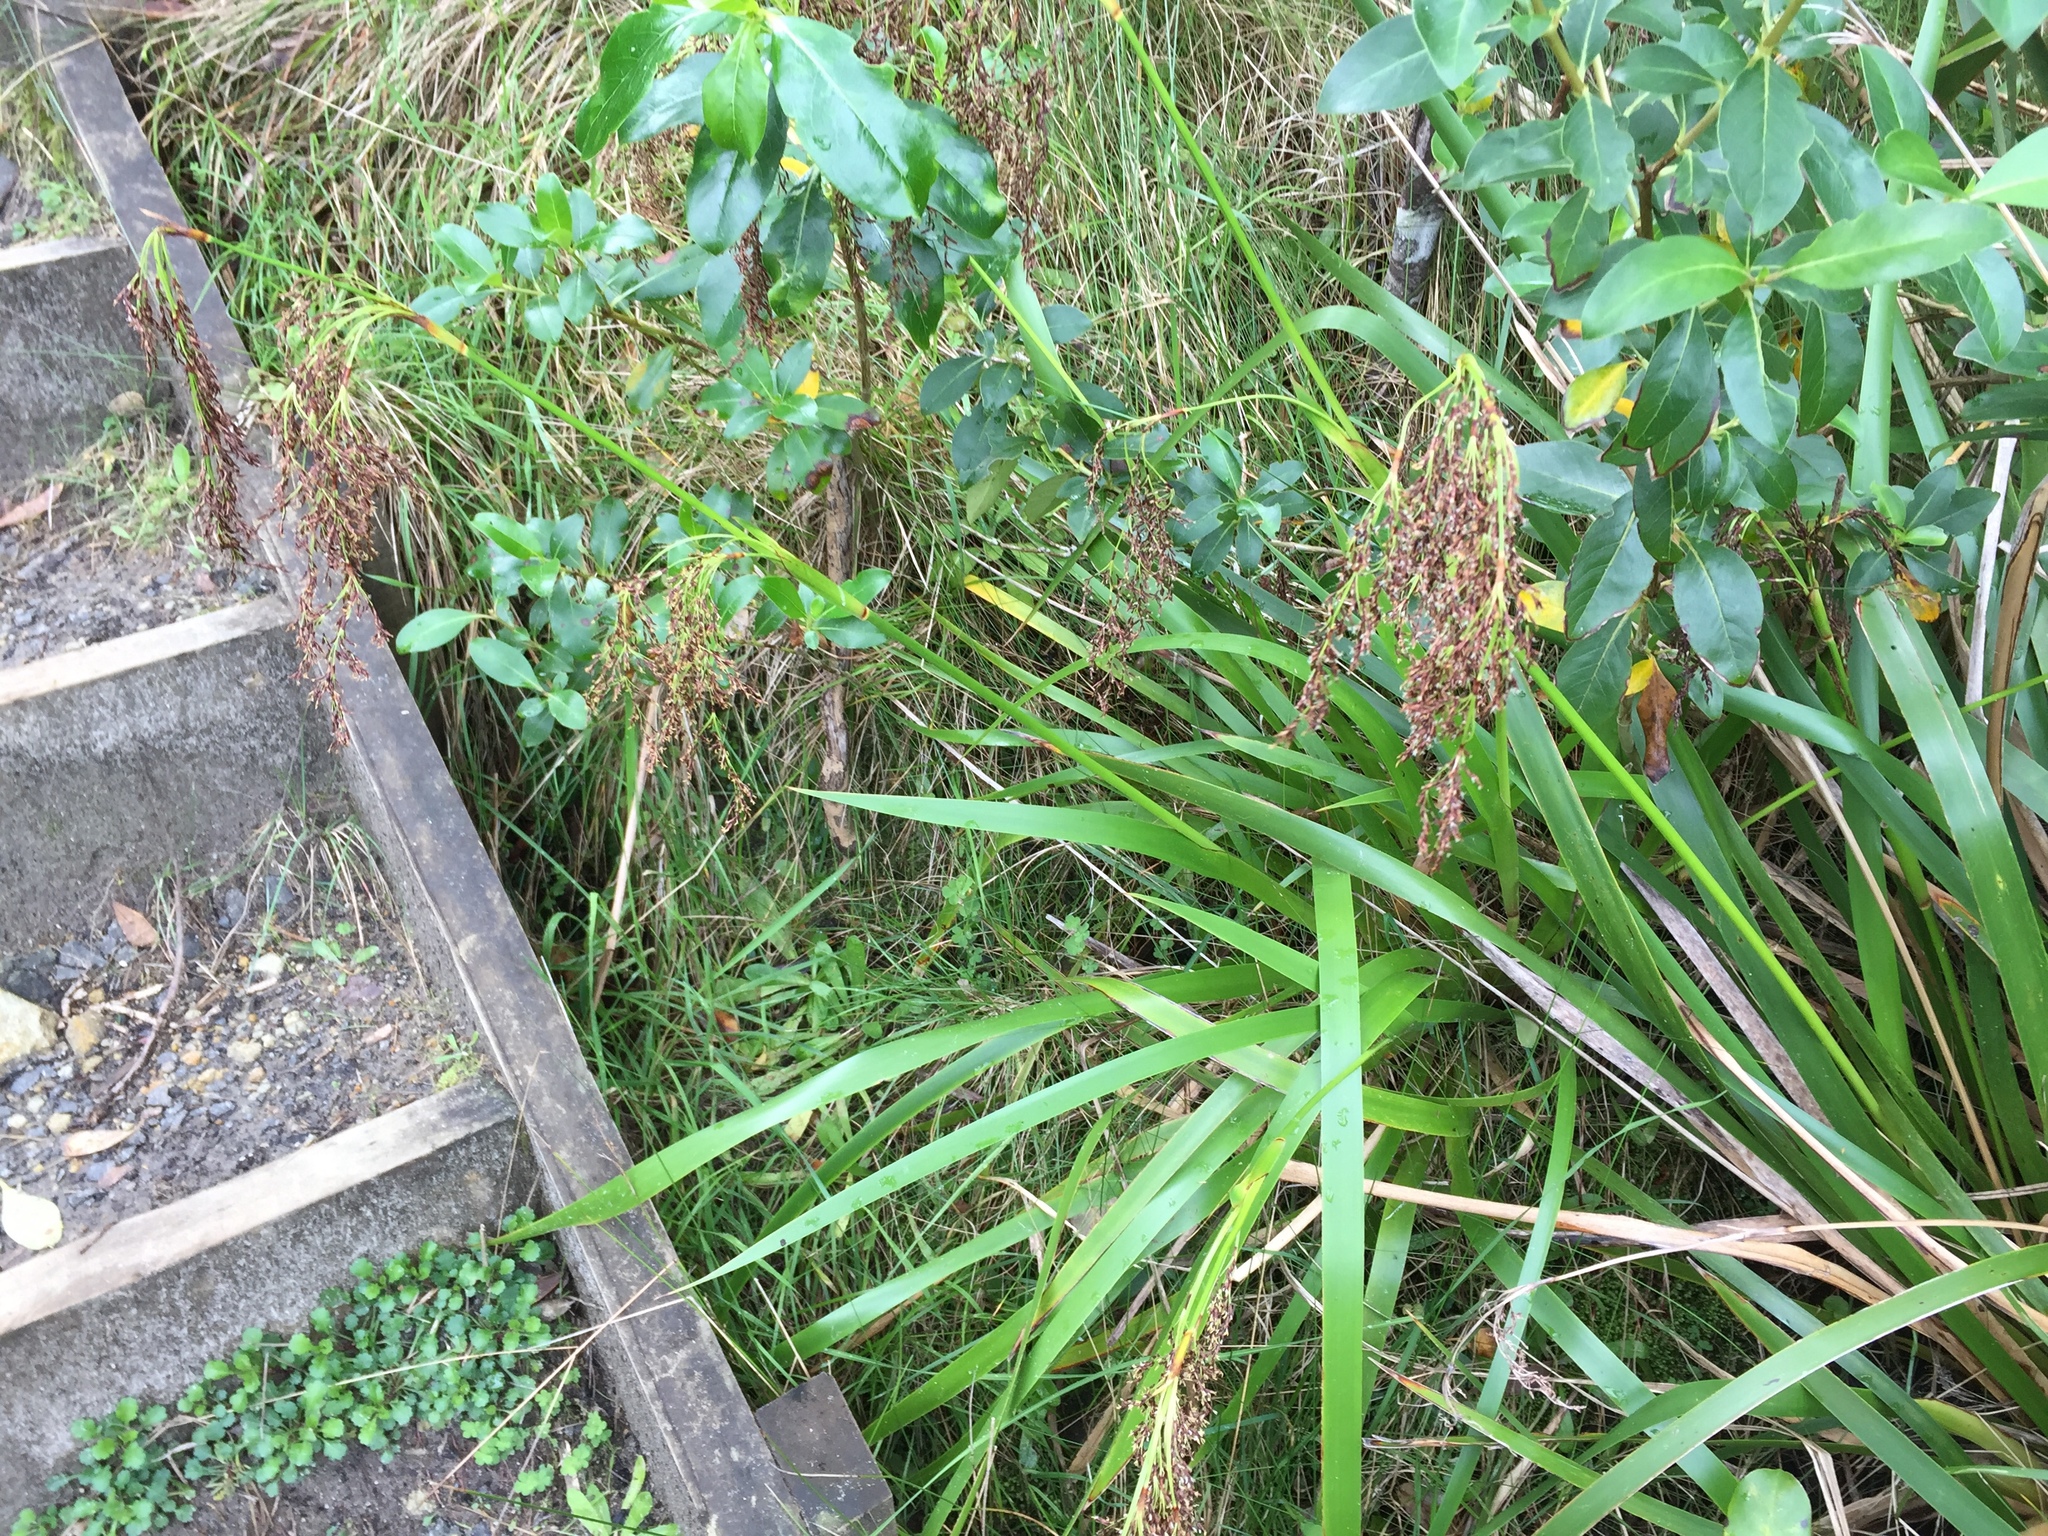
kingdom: Plantae
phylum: Tracheophyta
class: Liliopsida
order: Poales
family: Cyperaceae
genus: Machaerina
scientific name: Machaerina sinclairii
